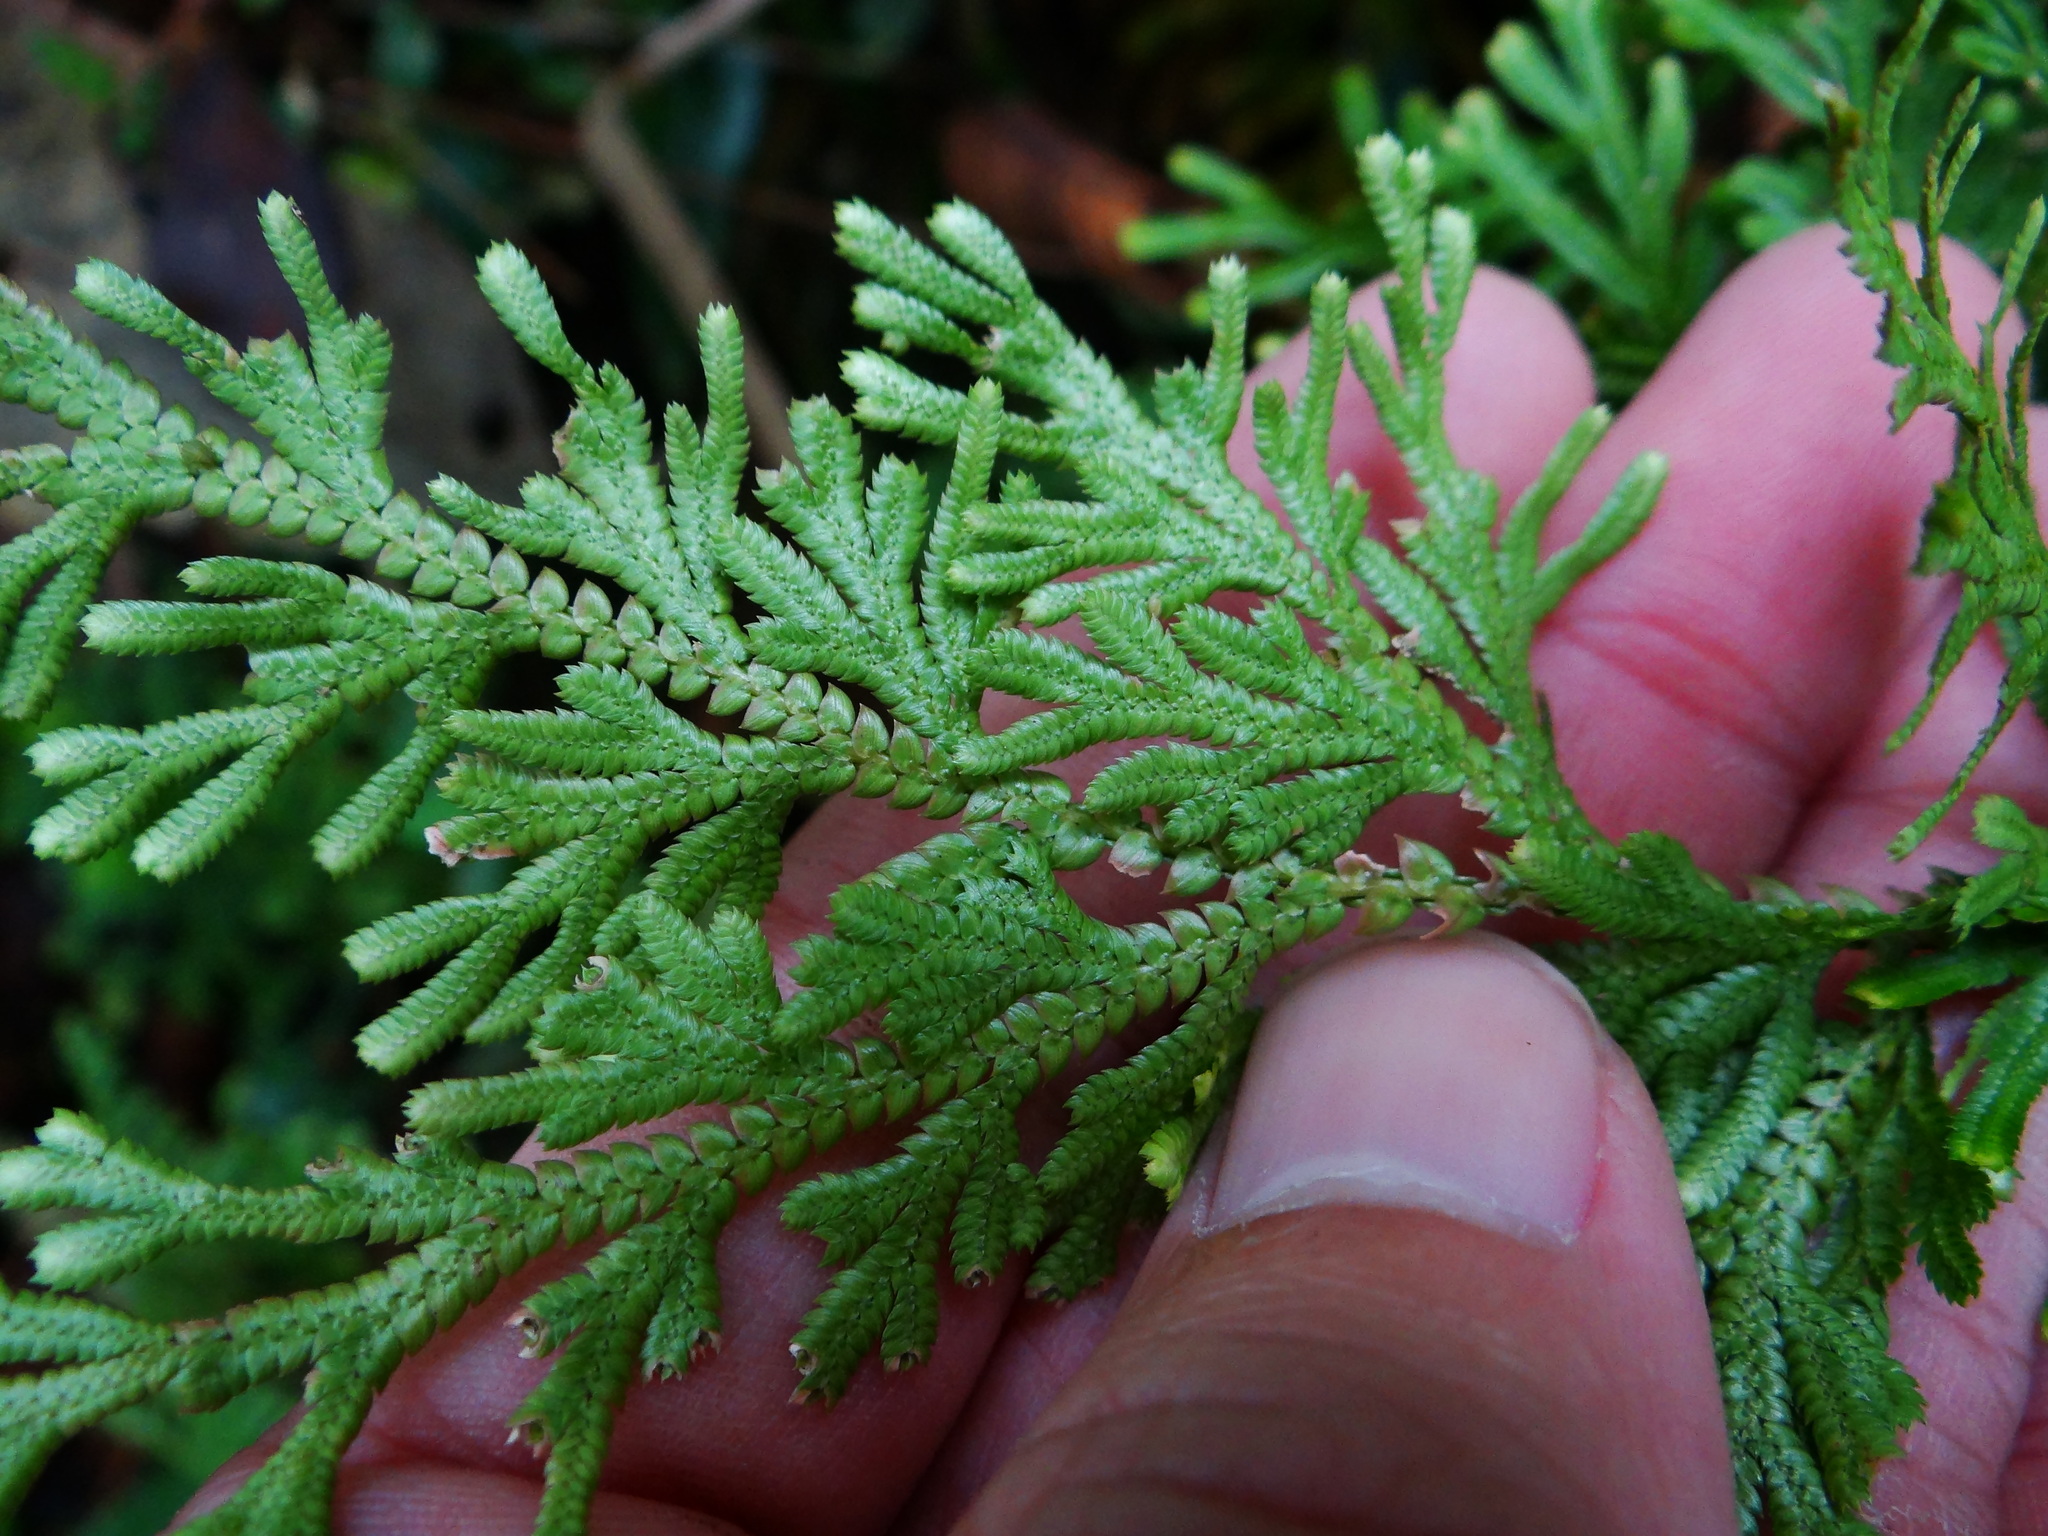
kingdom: Plantae
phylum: Tracheophyta
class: Lycopodiopsida
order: Selaginellales
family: Selaginellaceae
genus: Selaginella
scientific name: Selaginella involvens
